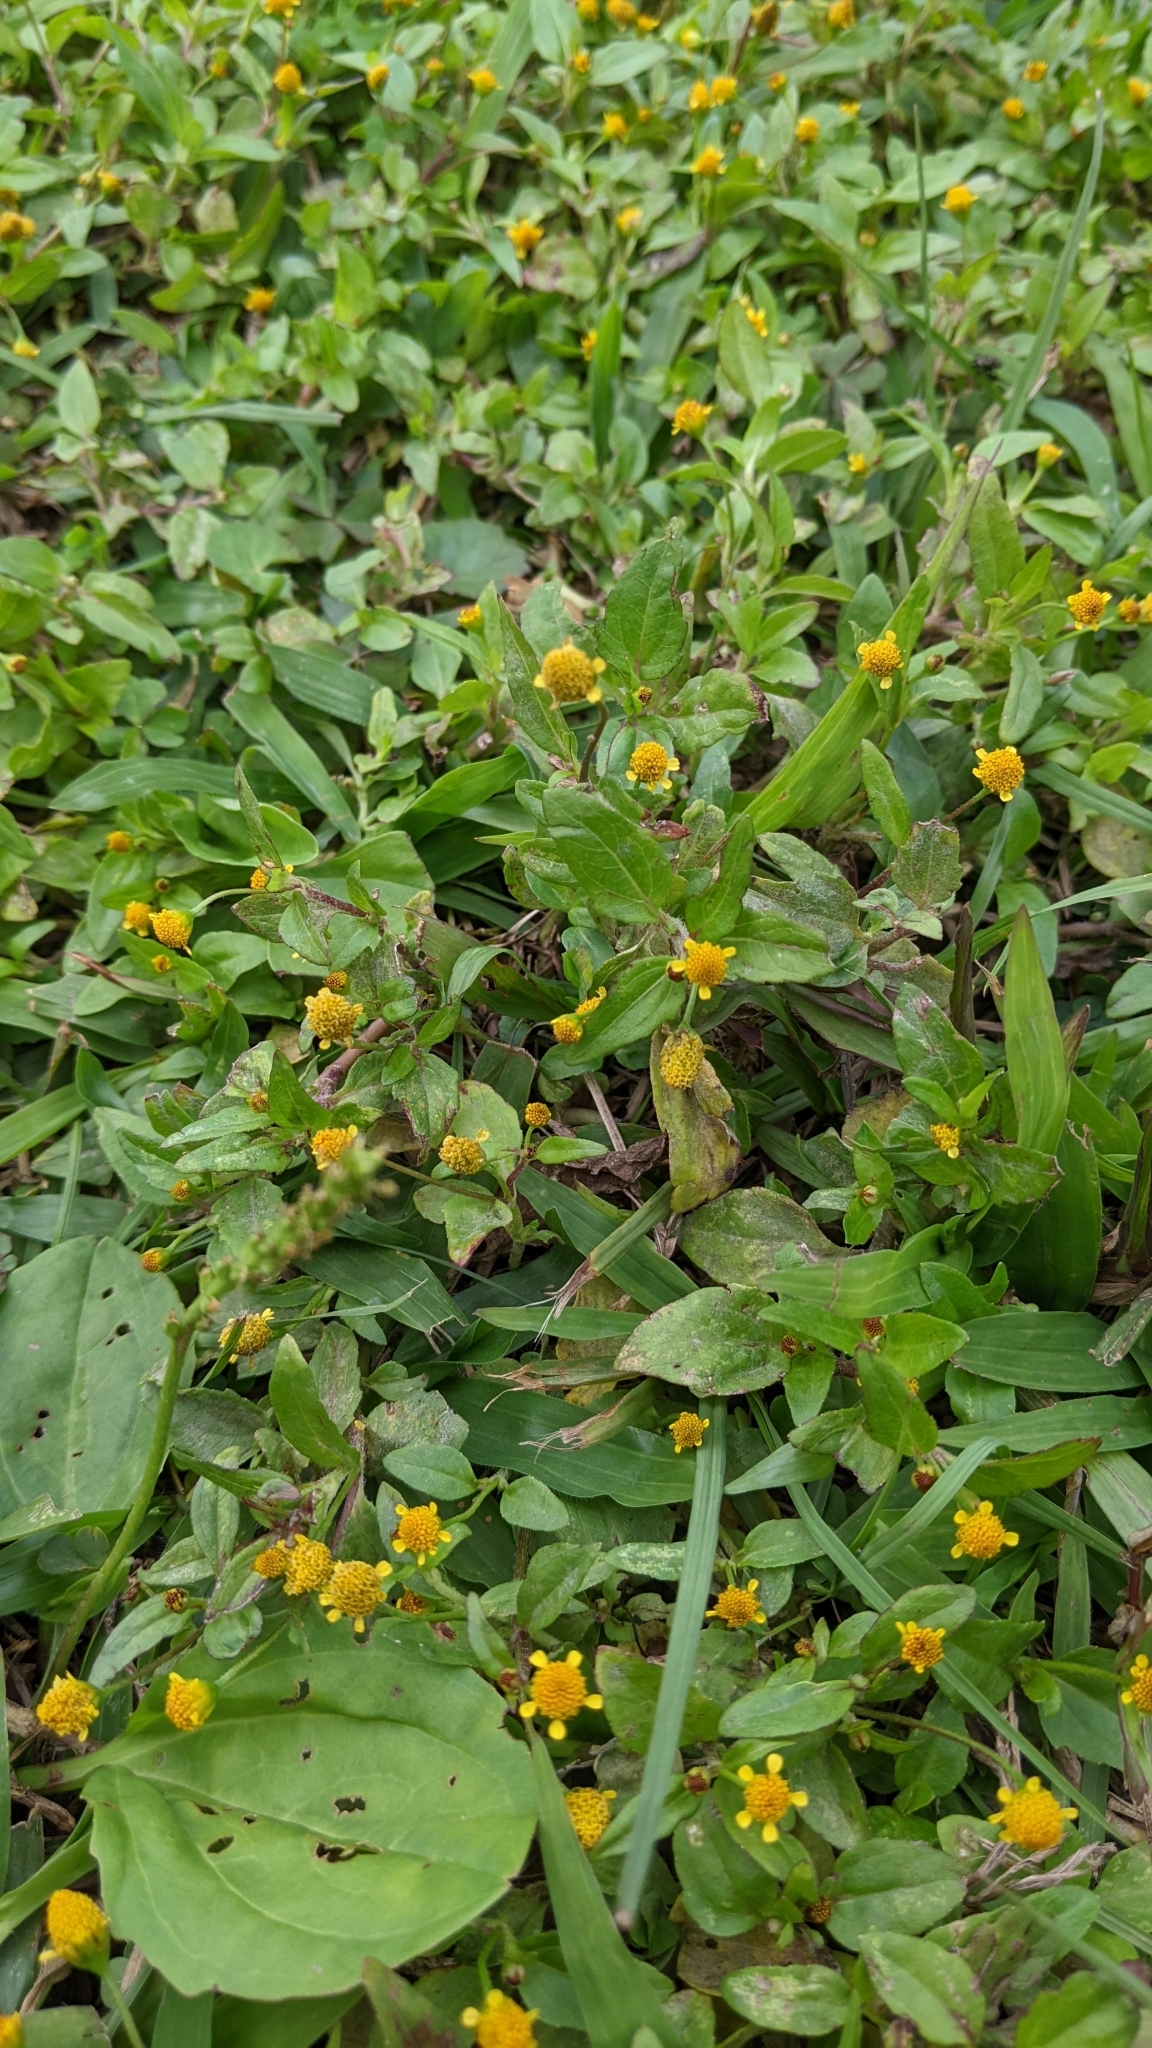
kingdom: Plantae
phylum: Tracheophyta
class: Magnoliopsida
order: Asterales
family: Asteraceae
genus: Acmella
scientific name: Acmella uliginosa
